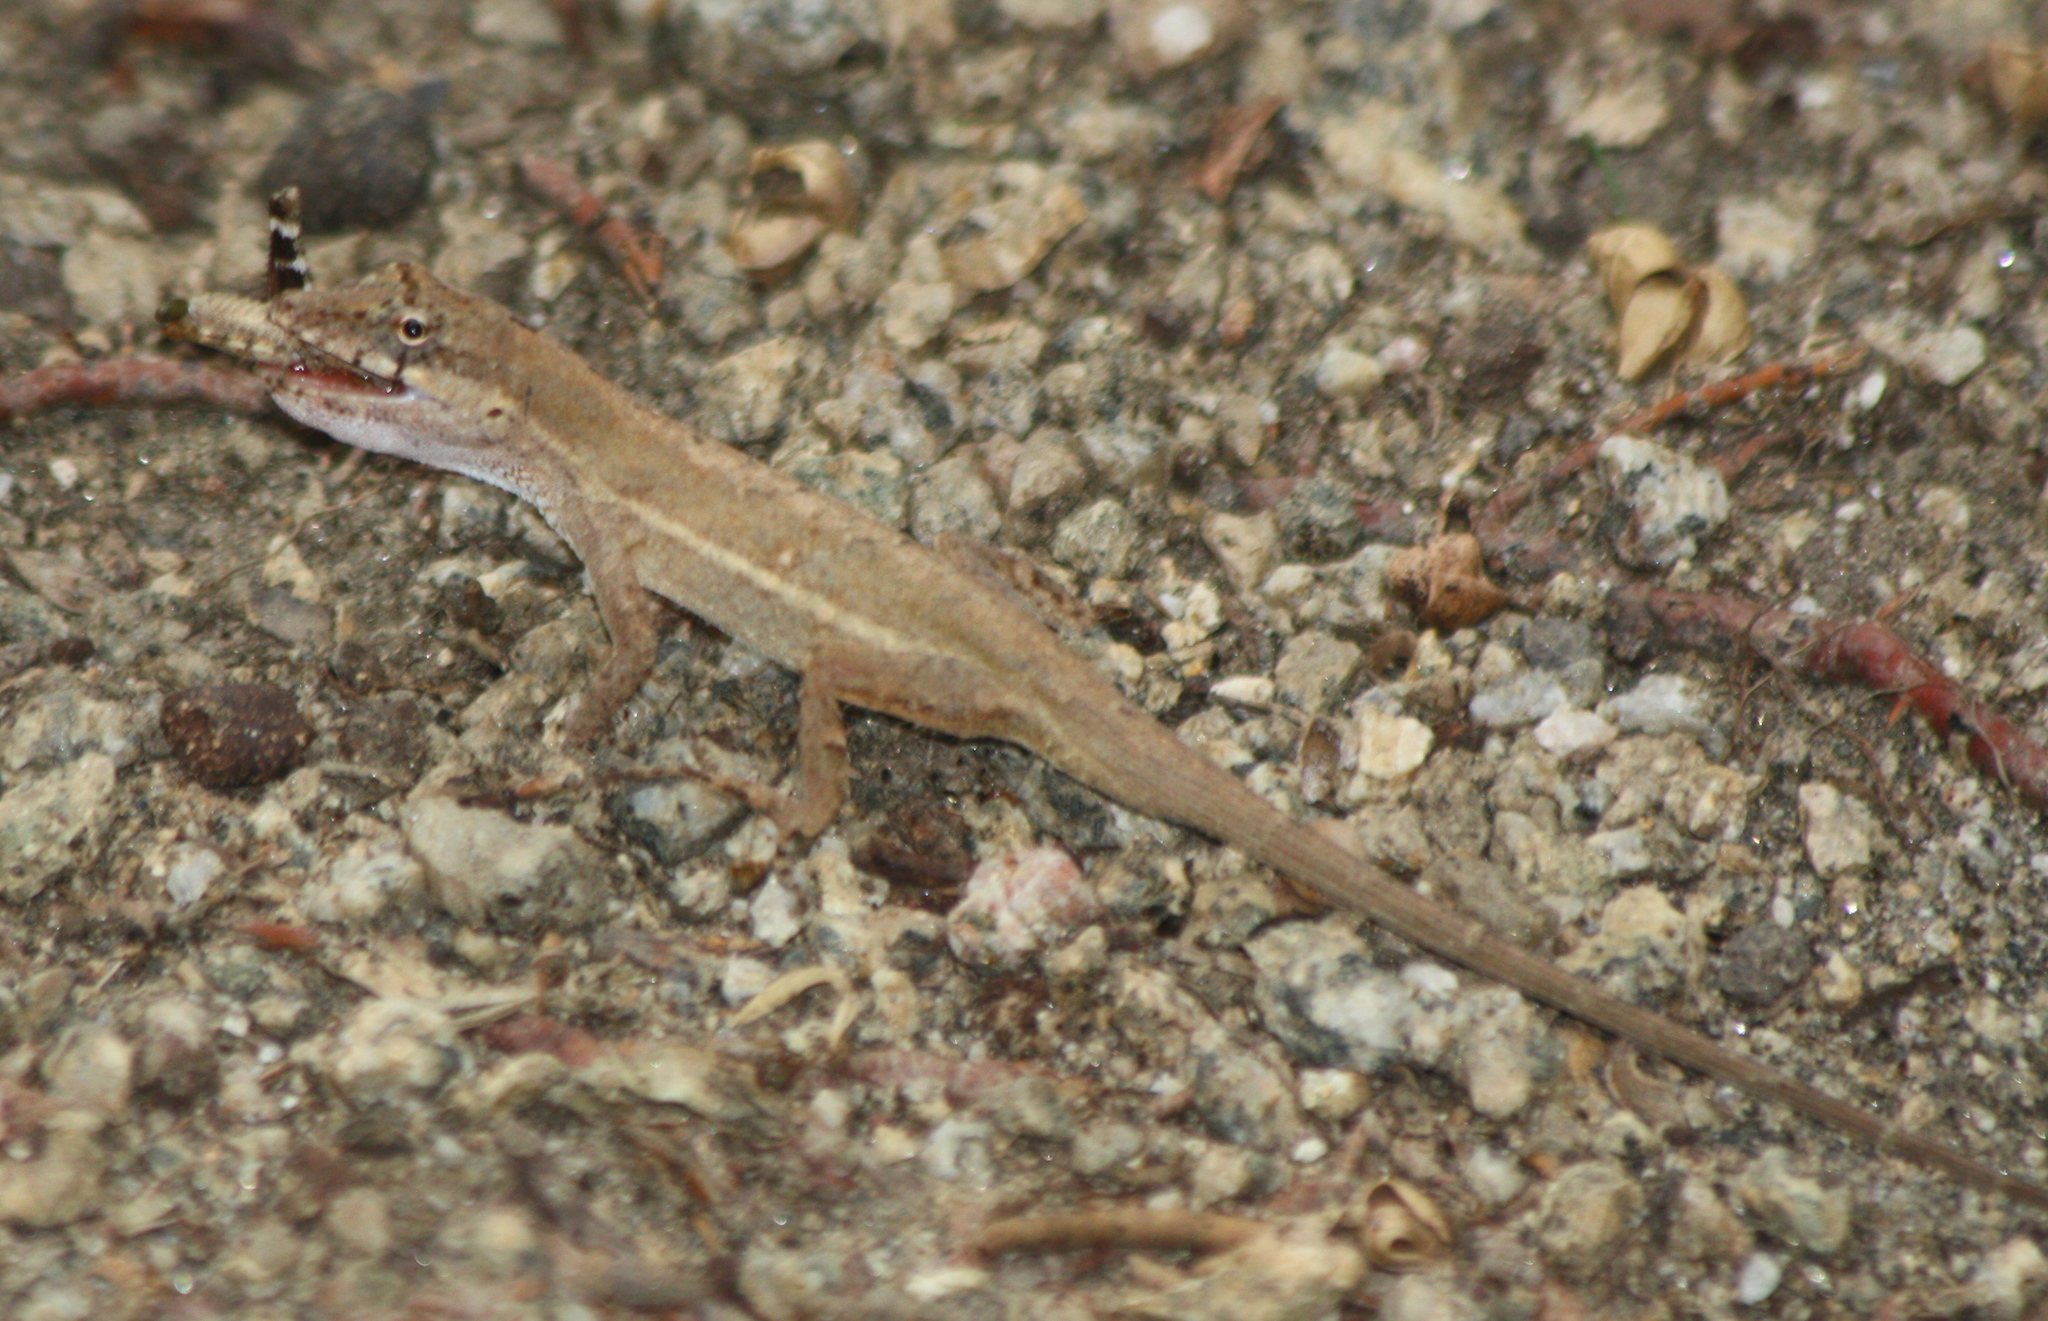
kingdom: Animalia
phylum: Chordata
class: Squamata
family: Dactyloidae
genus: Anolis
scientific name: Anolis nebulosus
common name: Clouded anole
